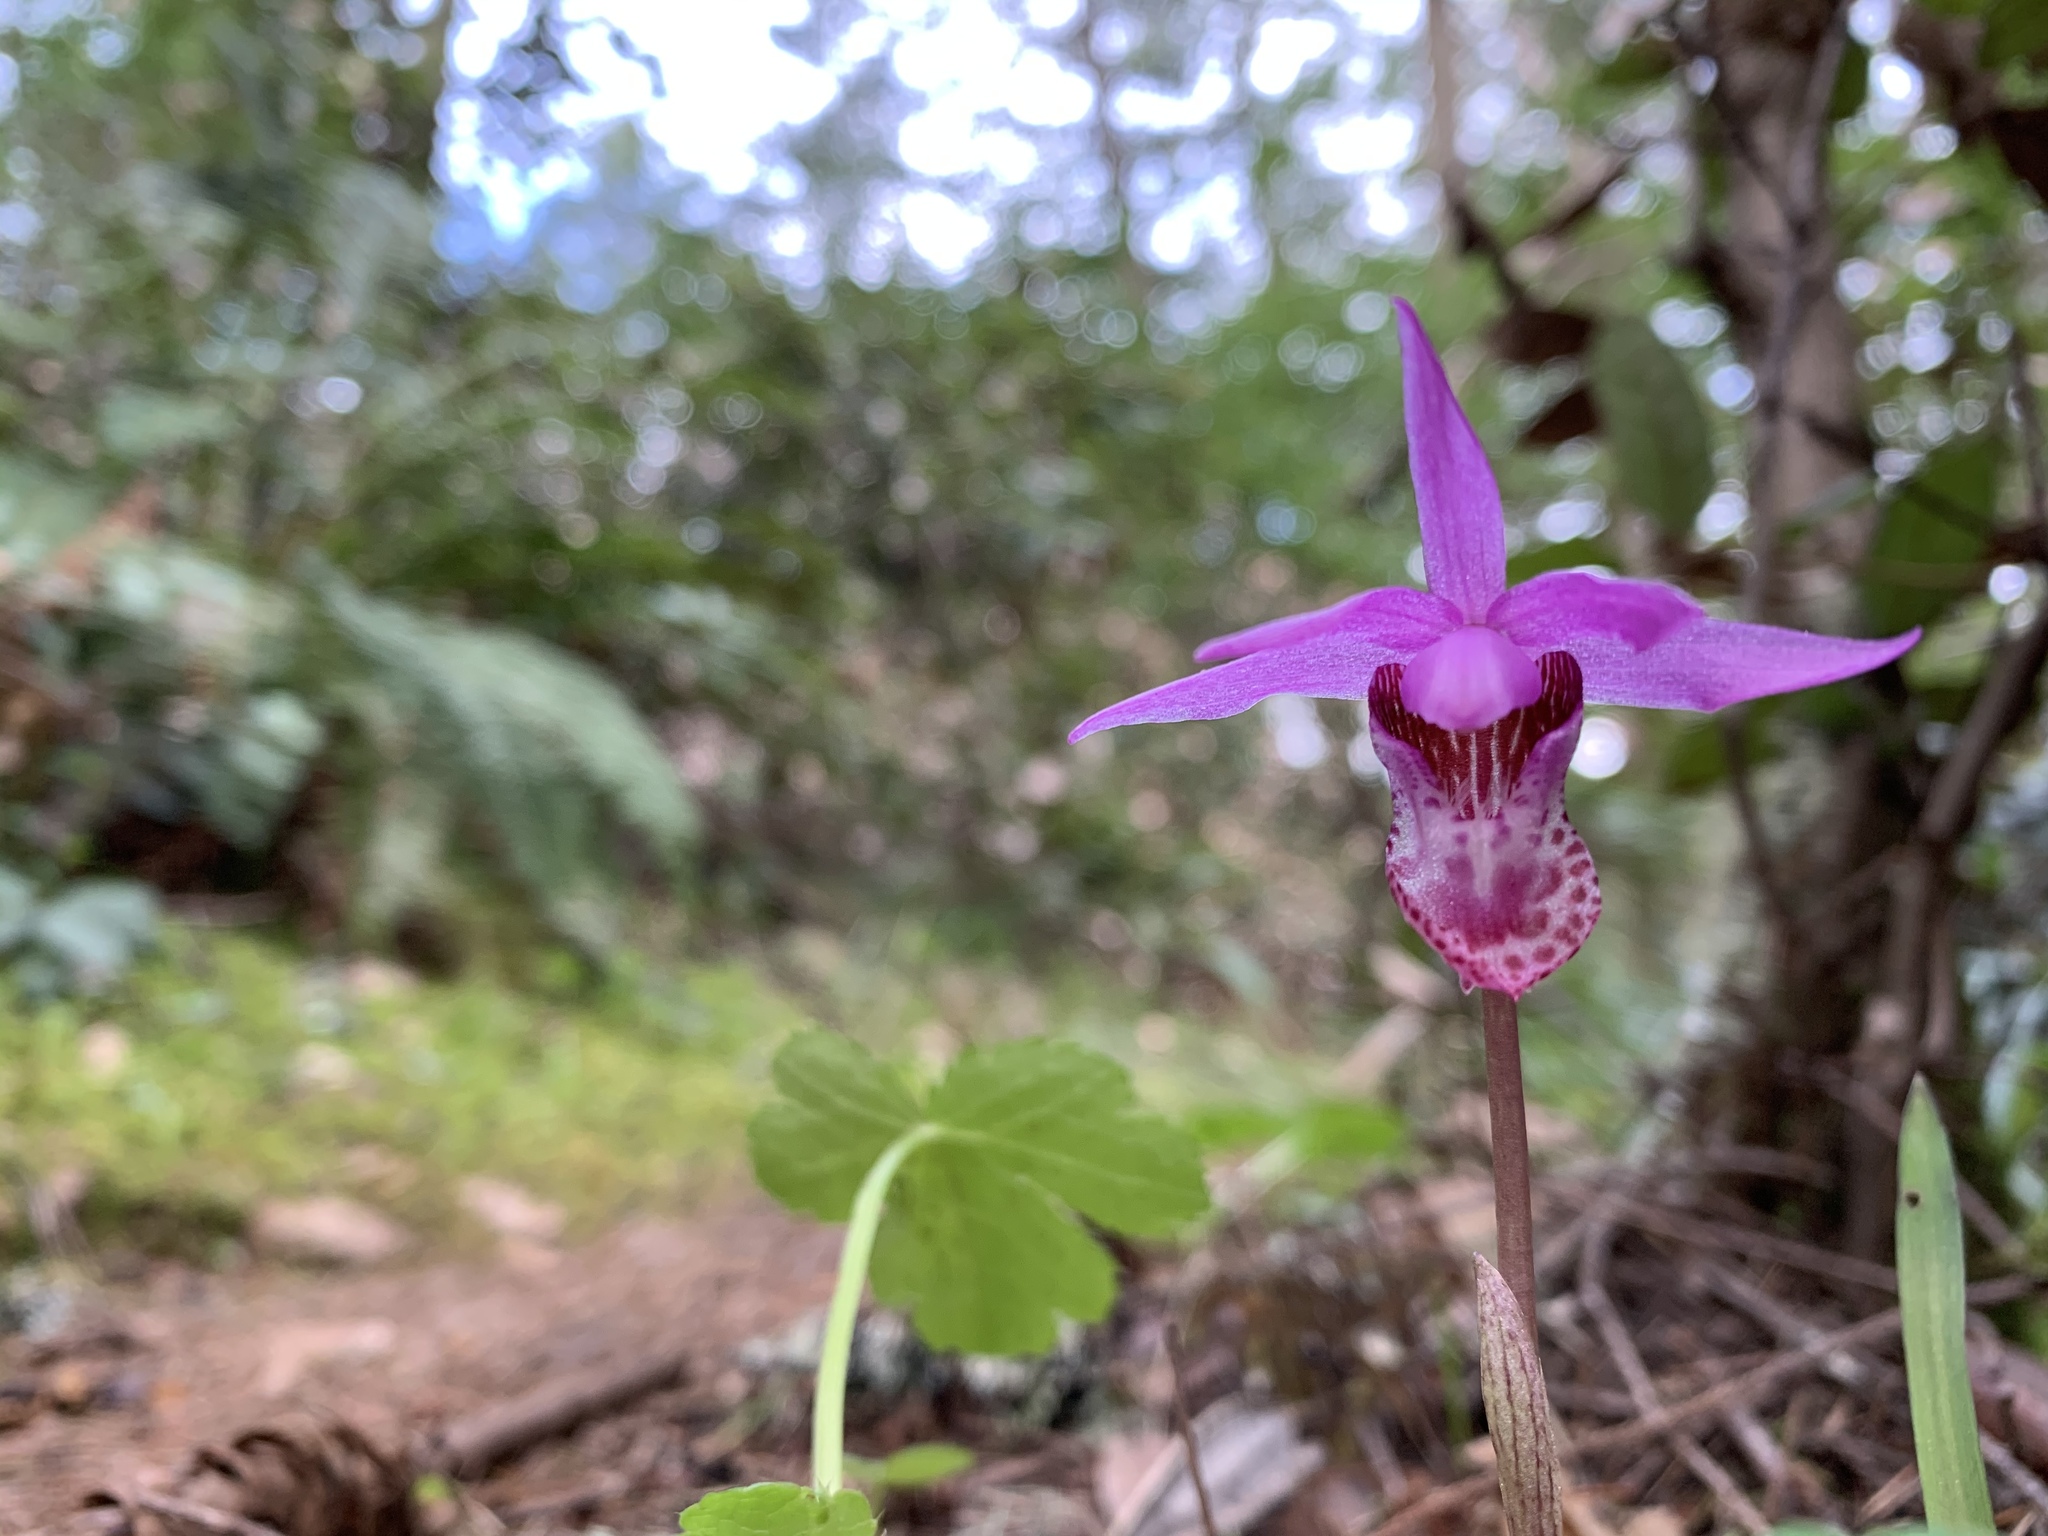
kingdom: Plantae
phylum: Tracheophyta
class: Liliopsida
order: Asparagales
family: Orchidaceae
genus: Calypso
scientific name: Calypso bulbosa
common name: Calypso
